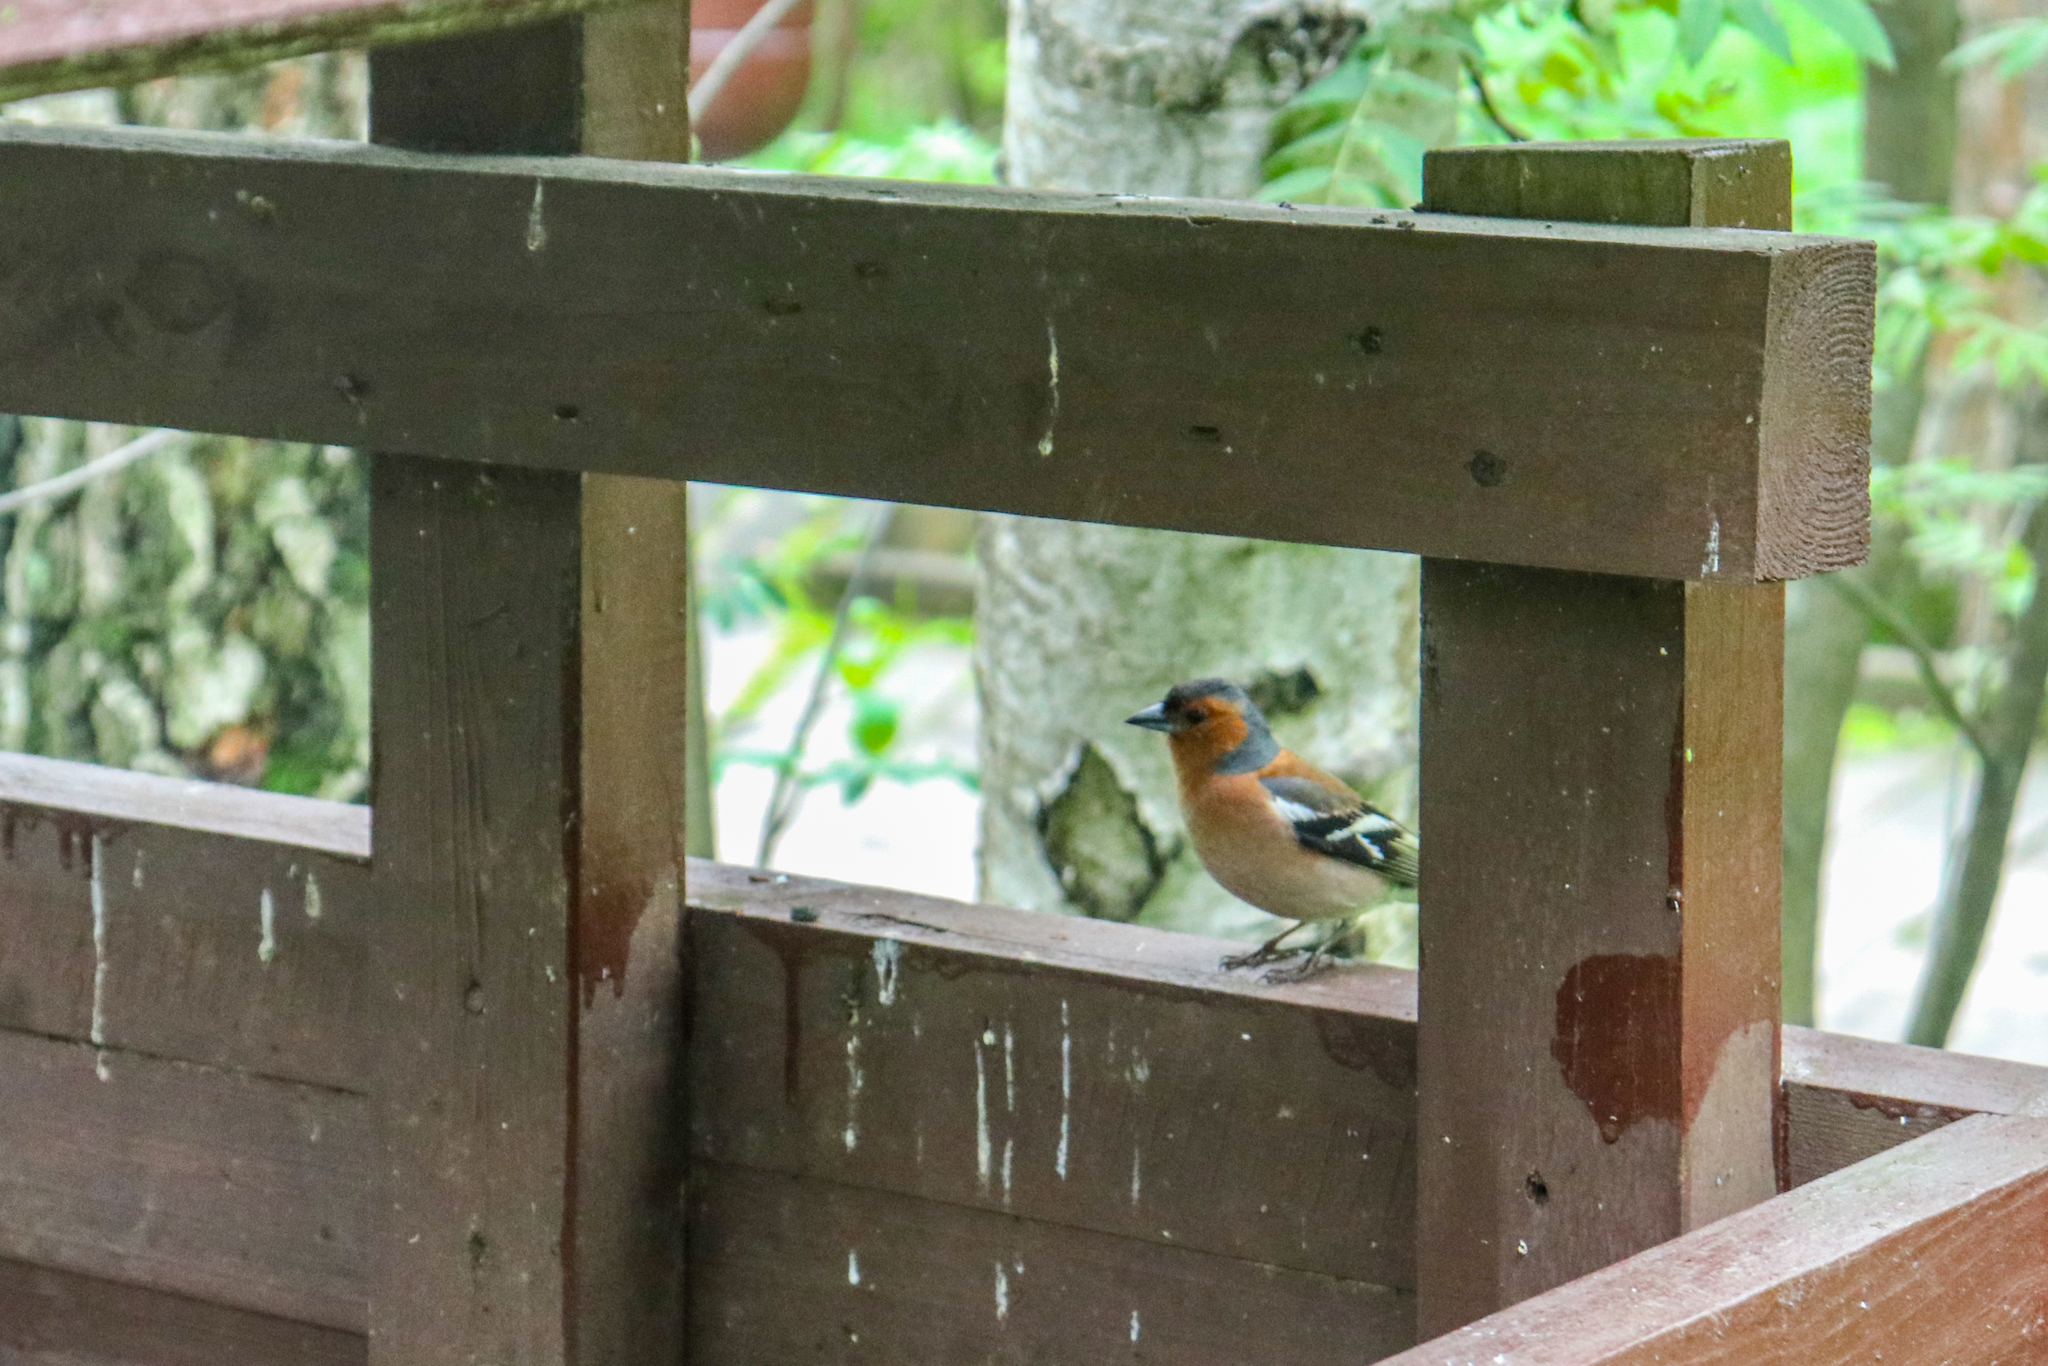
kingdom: Animalia
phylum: Chordata
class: Aves
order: Passeriformes
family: Fringillidae
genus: Fringilla
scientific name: Fringilla coelebs
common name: Common chaffinch
